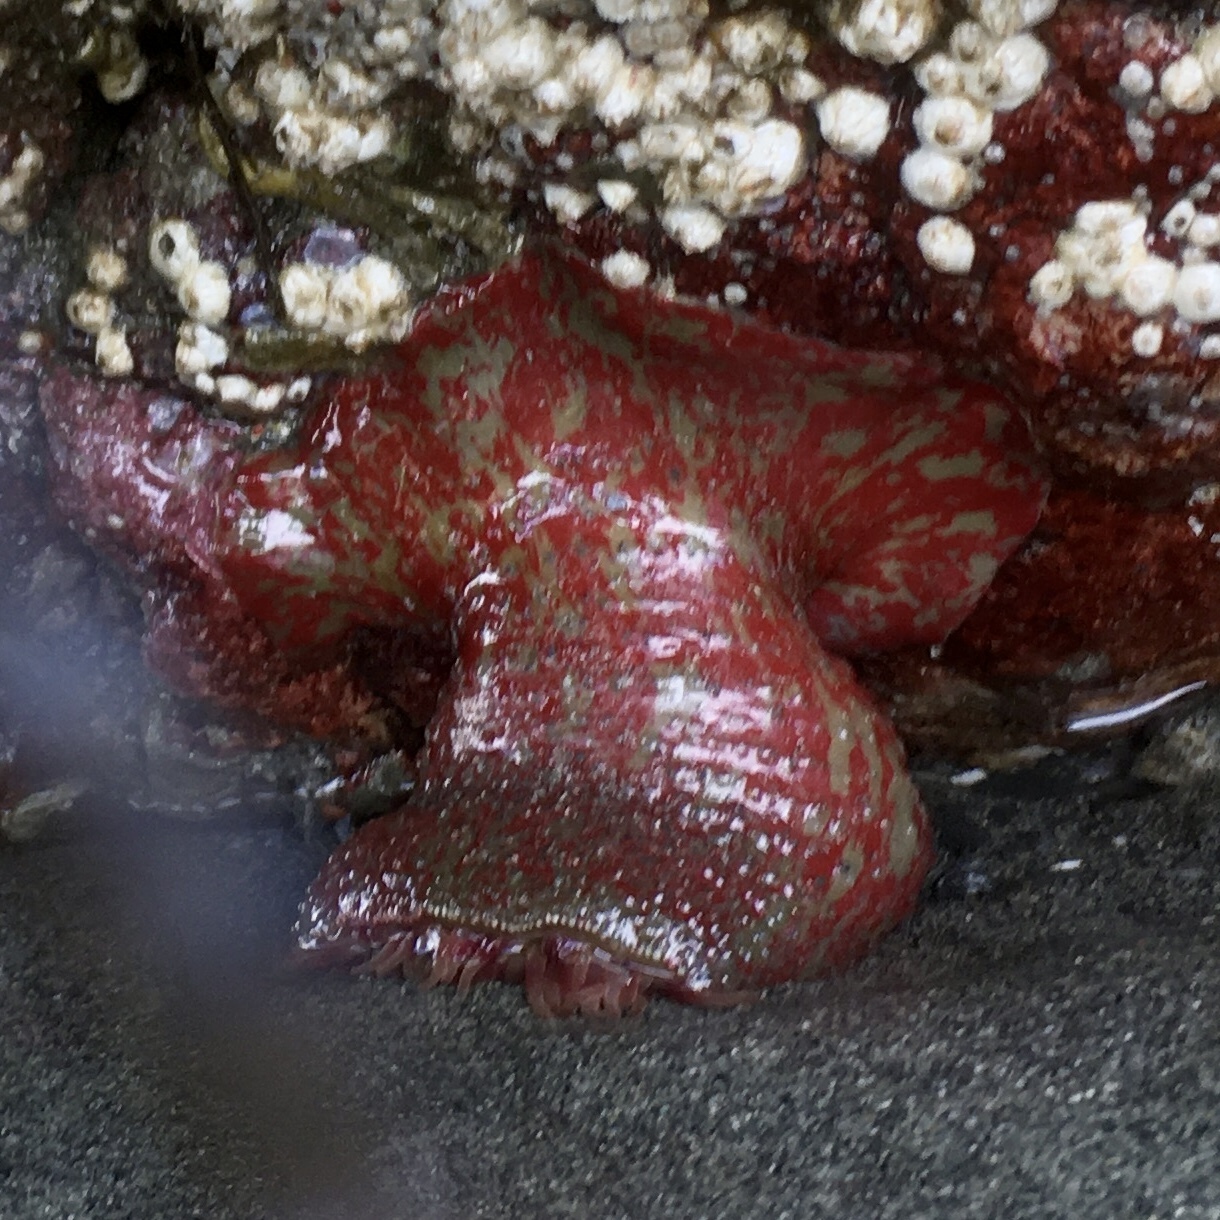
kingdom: Animalia
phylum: Cnidaria
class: Anthozoa
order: Actiniaria
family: Actiniidae
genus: Urticina
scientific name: Urticina grebelnyi
